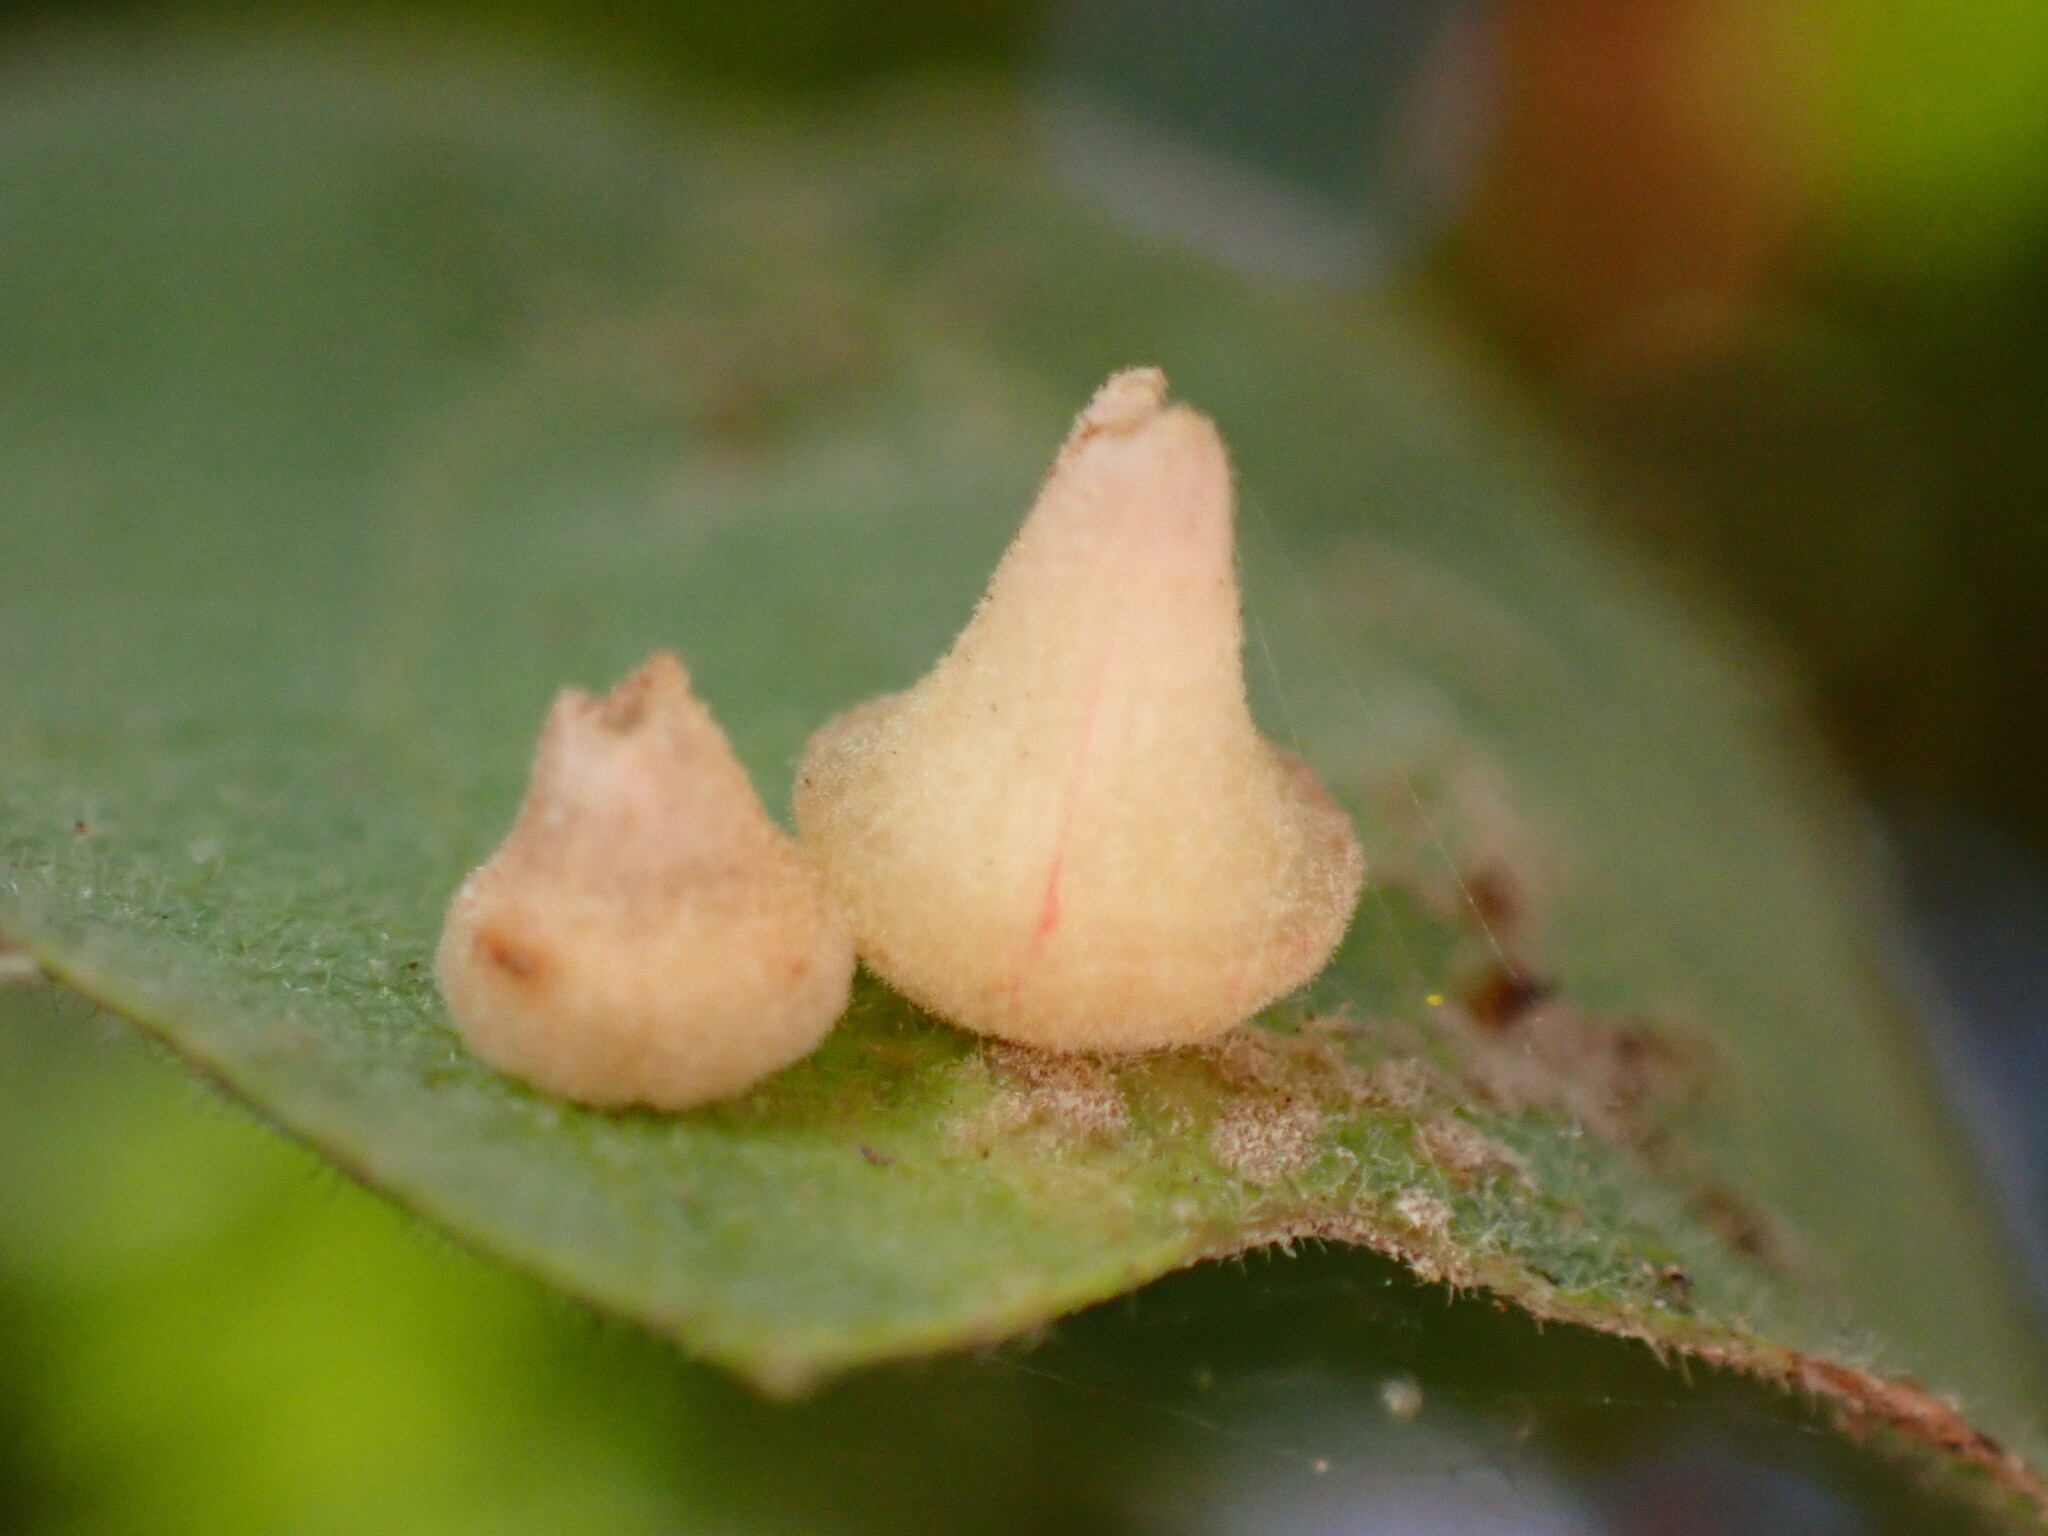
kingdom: Animalia
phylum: Arthropoda
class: Insecta
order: Hymenoptera
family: Cynipidae
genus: Andricus
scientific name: Andricus
